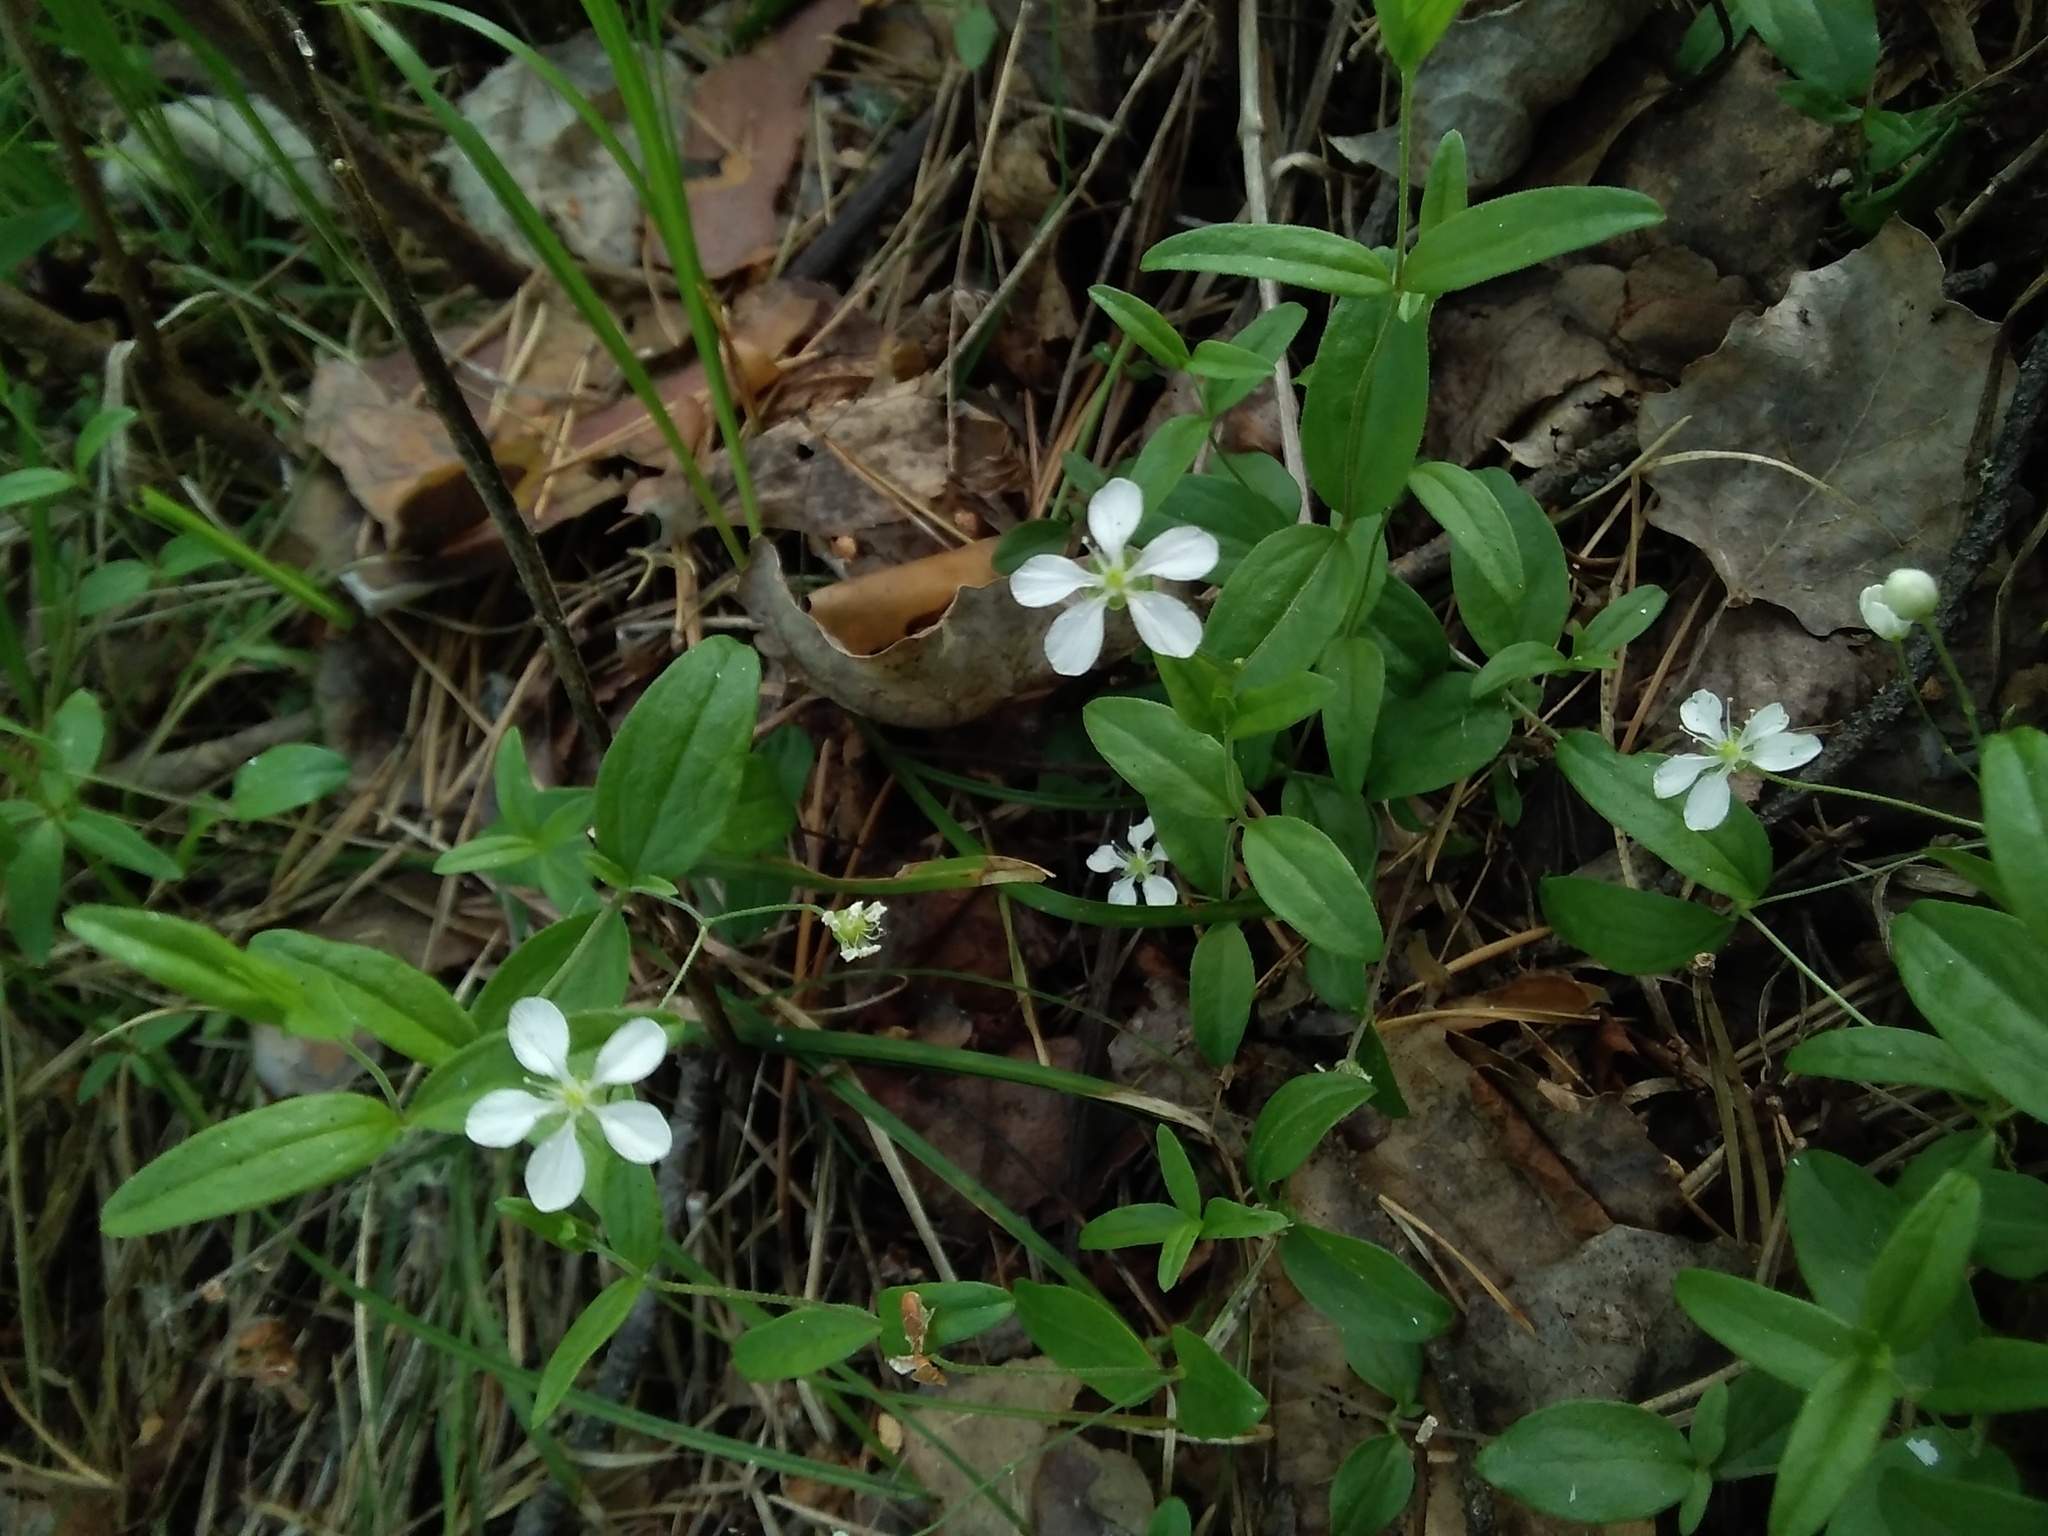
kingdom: Plantae
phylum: Tracheophyta
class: Magnoliopsida
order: Caryophyllales
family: Caryophyllaceae
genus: Moehringia
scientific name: Moehringia lateriflora
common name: Blunt-leaved sandwort
